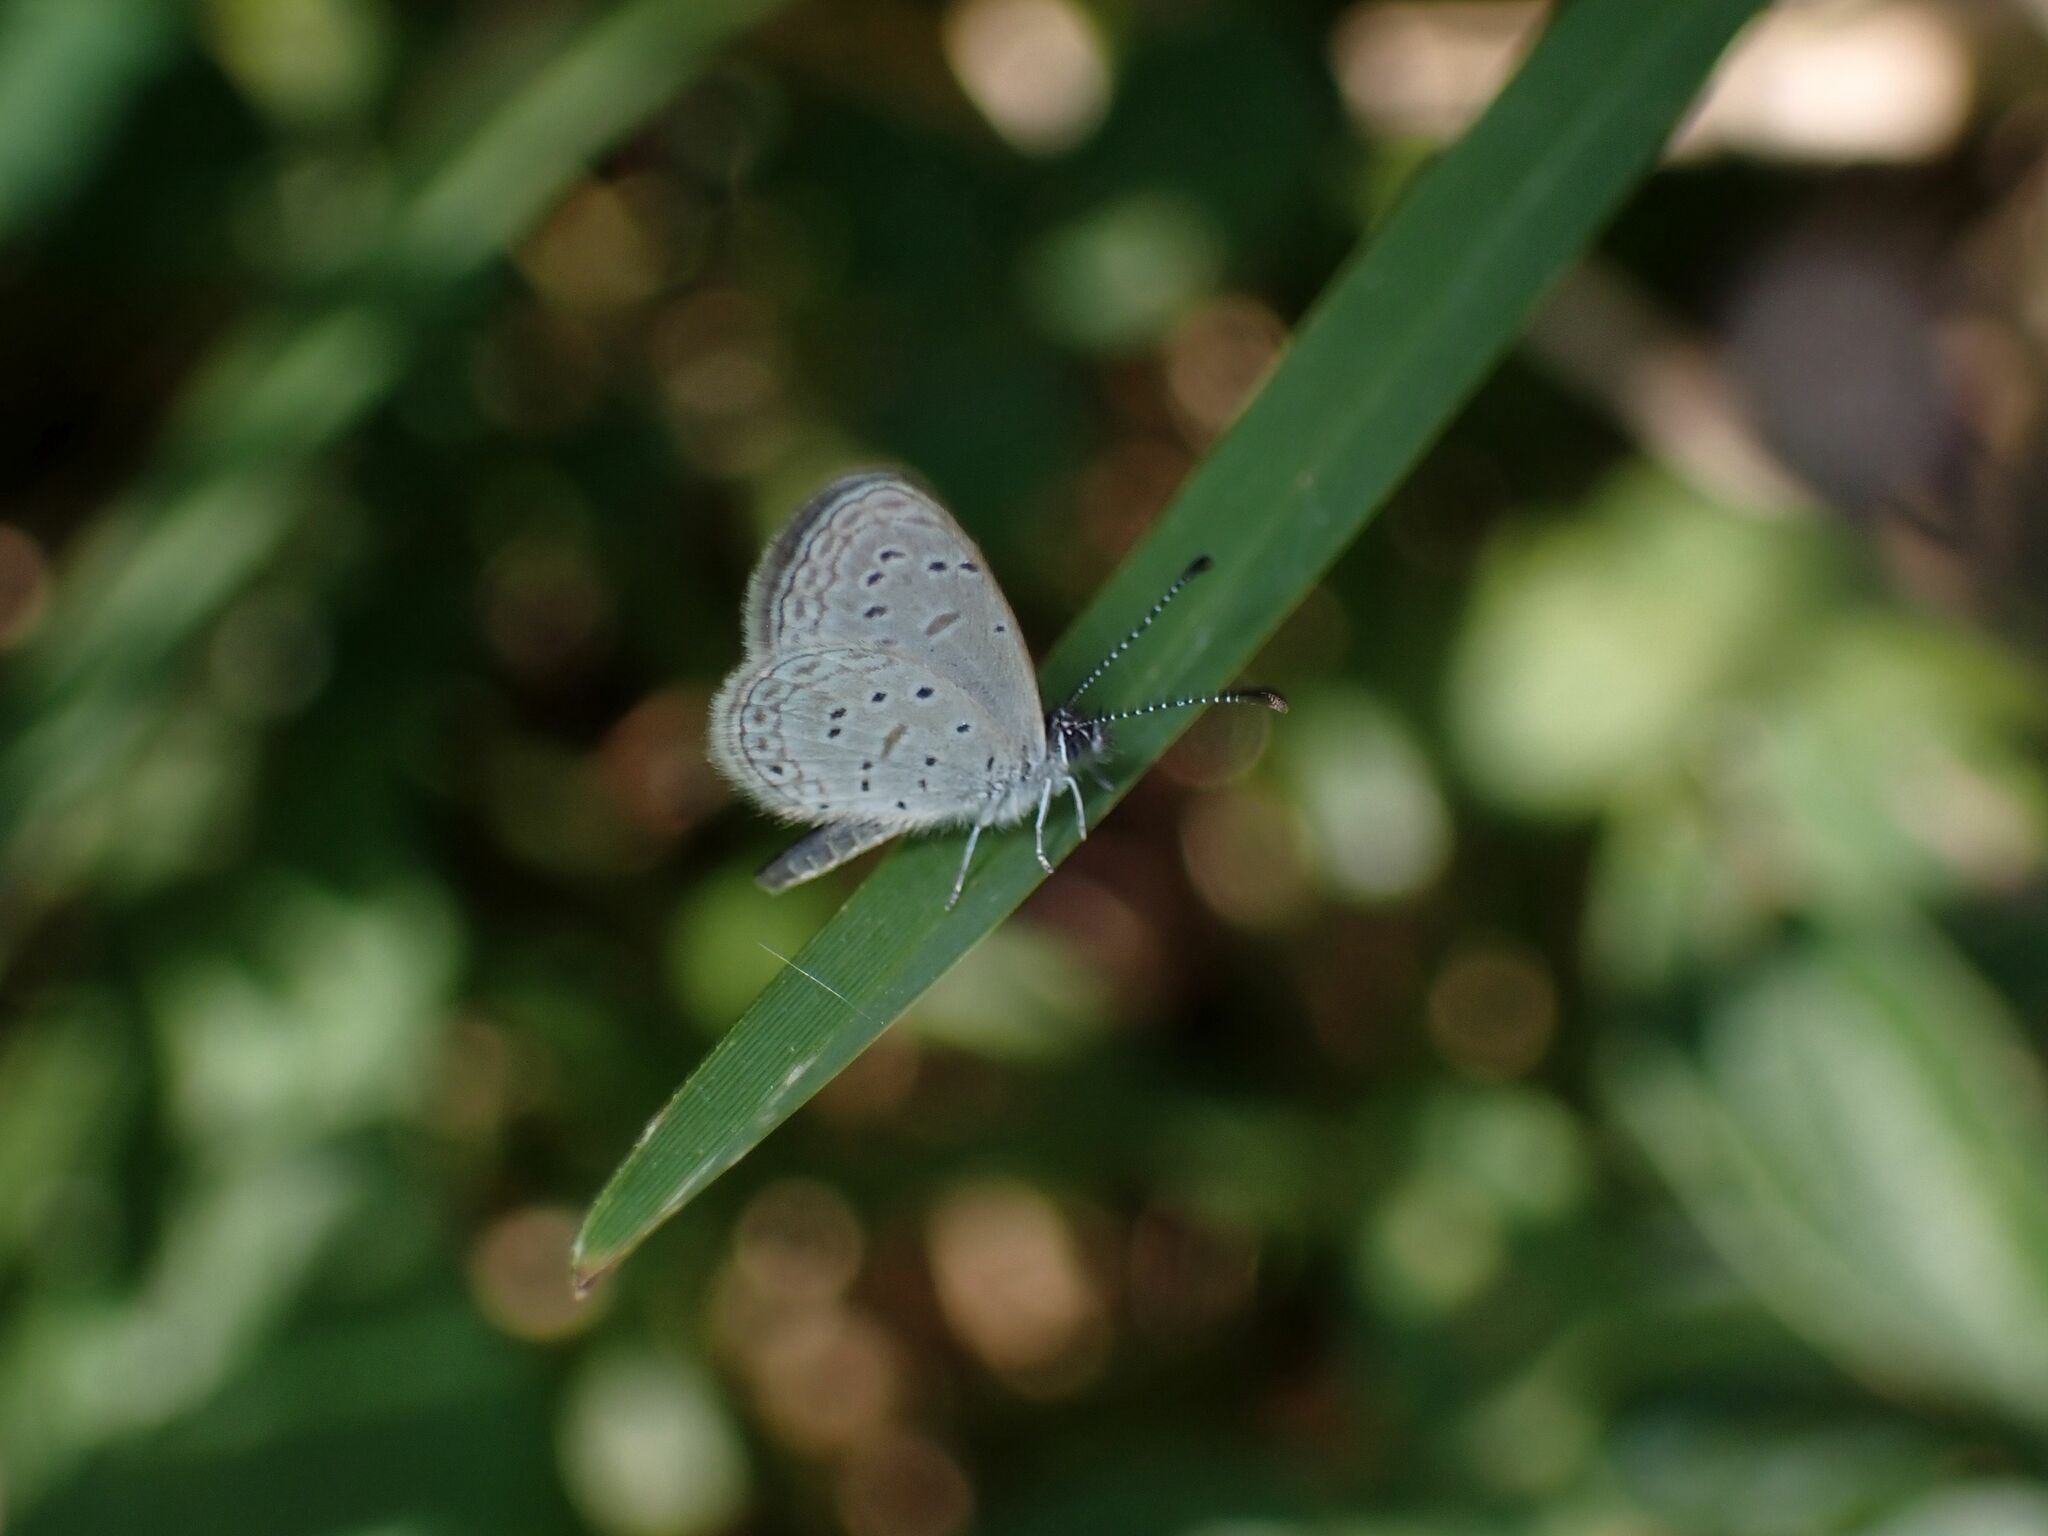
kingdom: Animalia
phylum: Arthropoda
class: Insecta
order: Lepidoptera
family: Lycaenidae
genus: Zizula
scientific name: Zizula hylax
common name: Gaika blue
